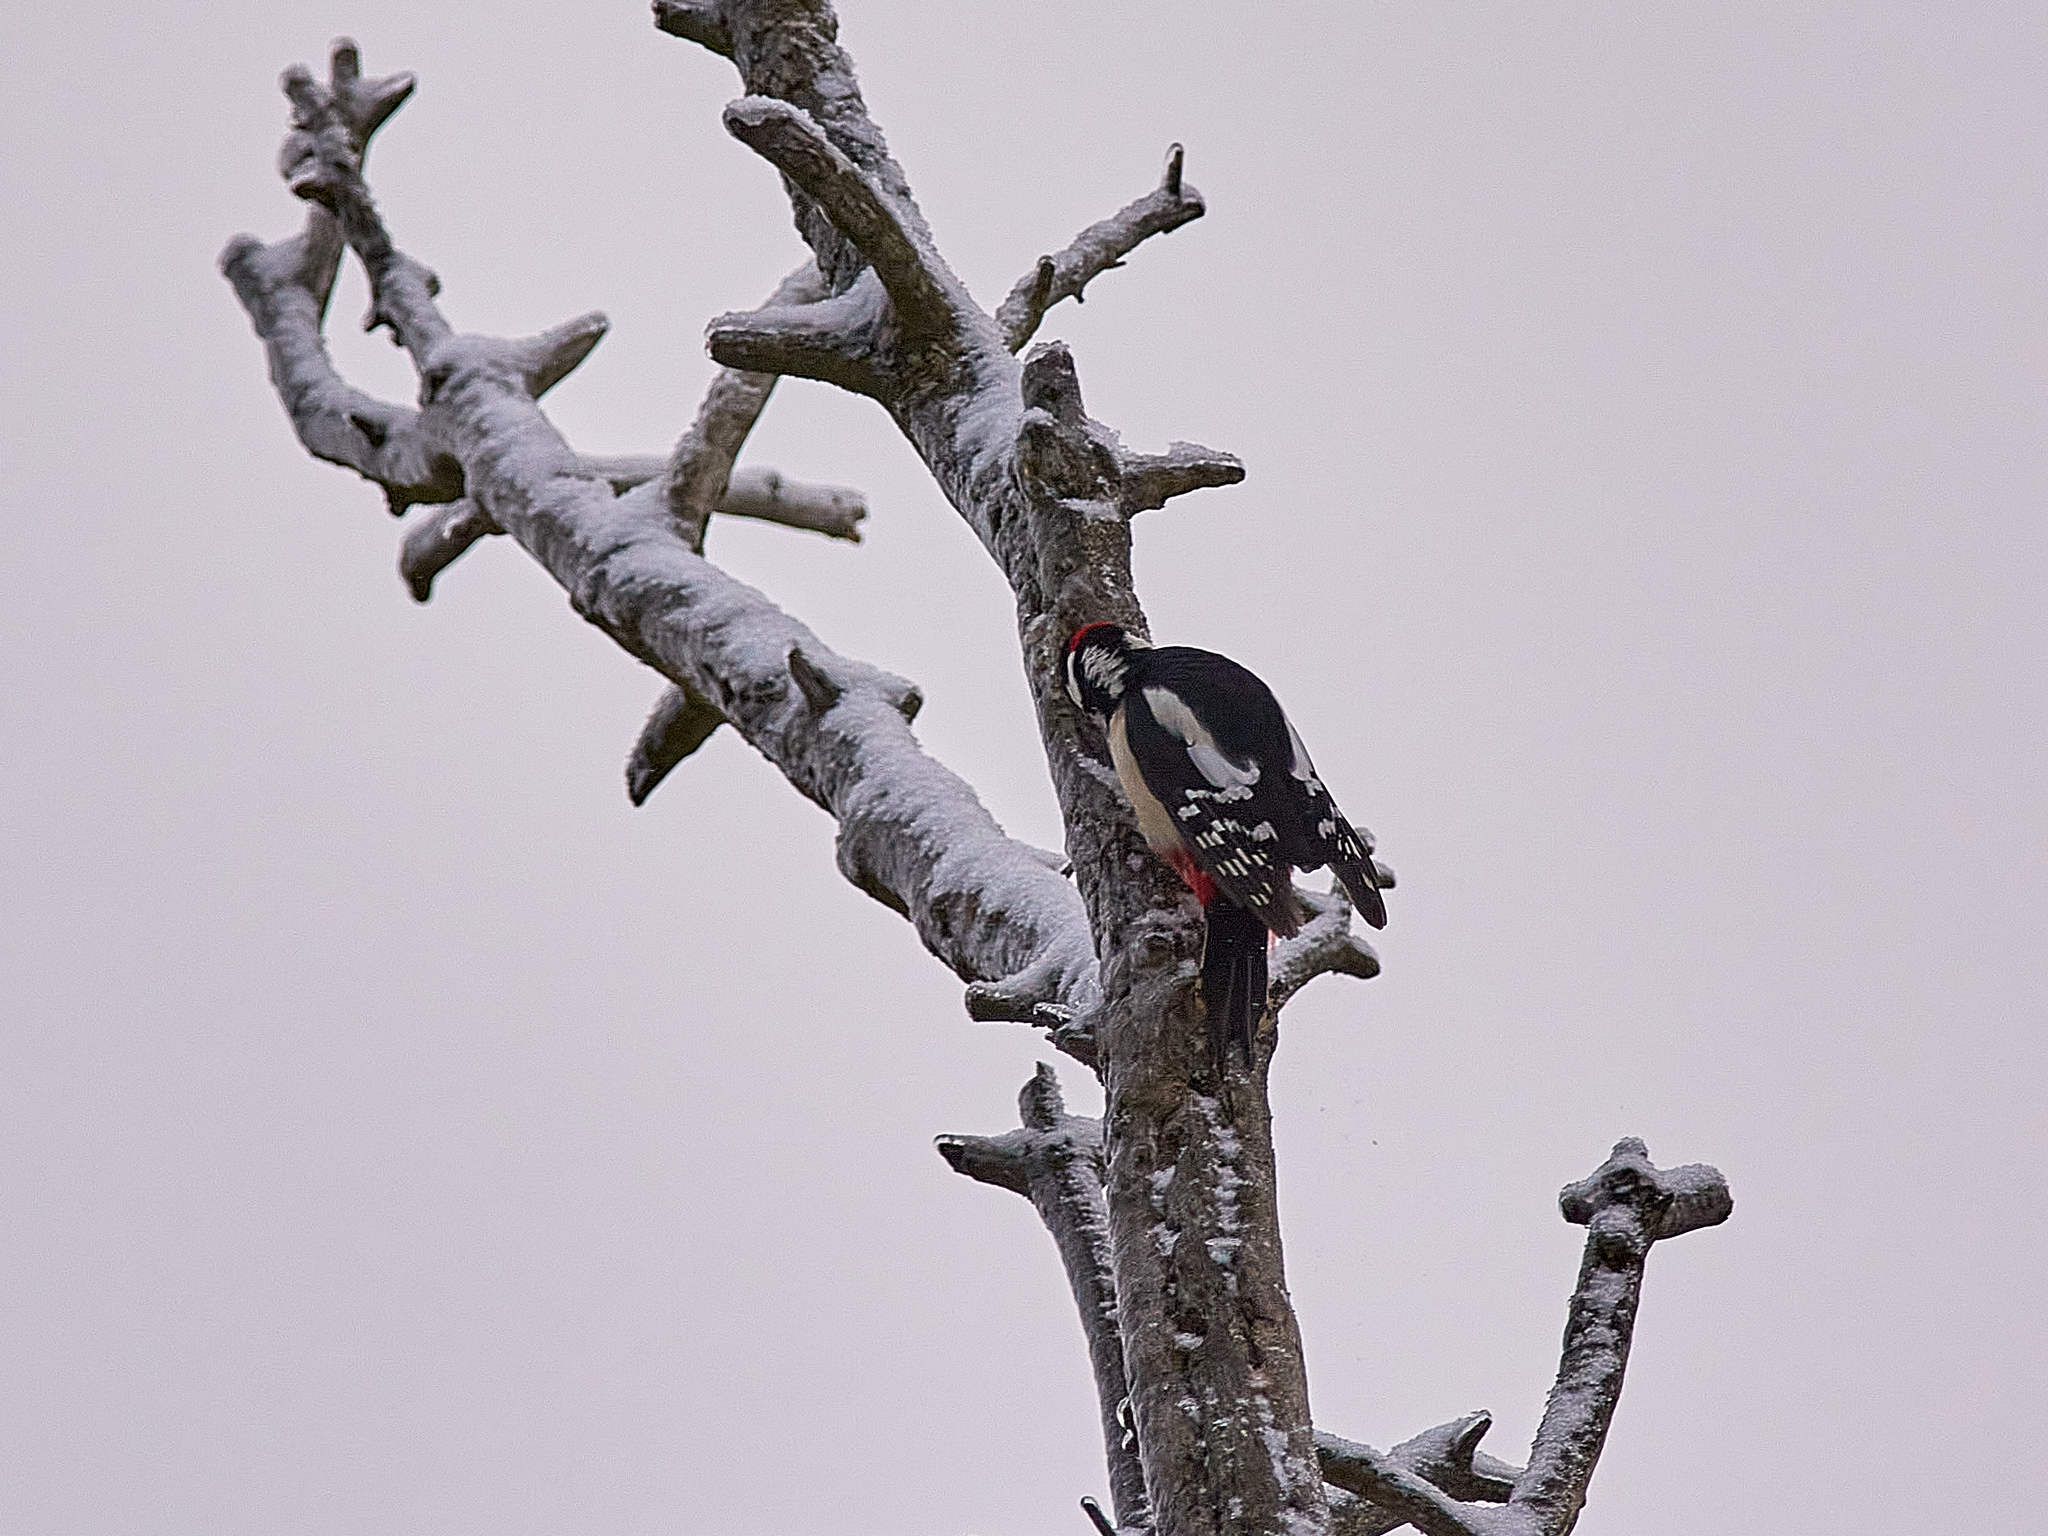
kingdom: Animalia
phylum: Chordata
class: Aves
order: Piciformes
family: Picidae
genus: Dendrocopos
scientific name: Dendrocopos major
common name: Great spotted woodpecker
